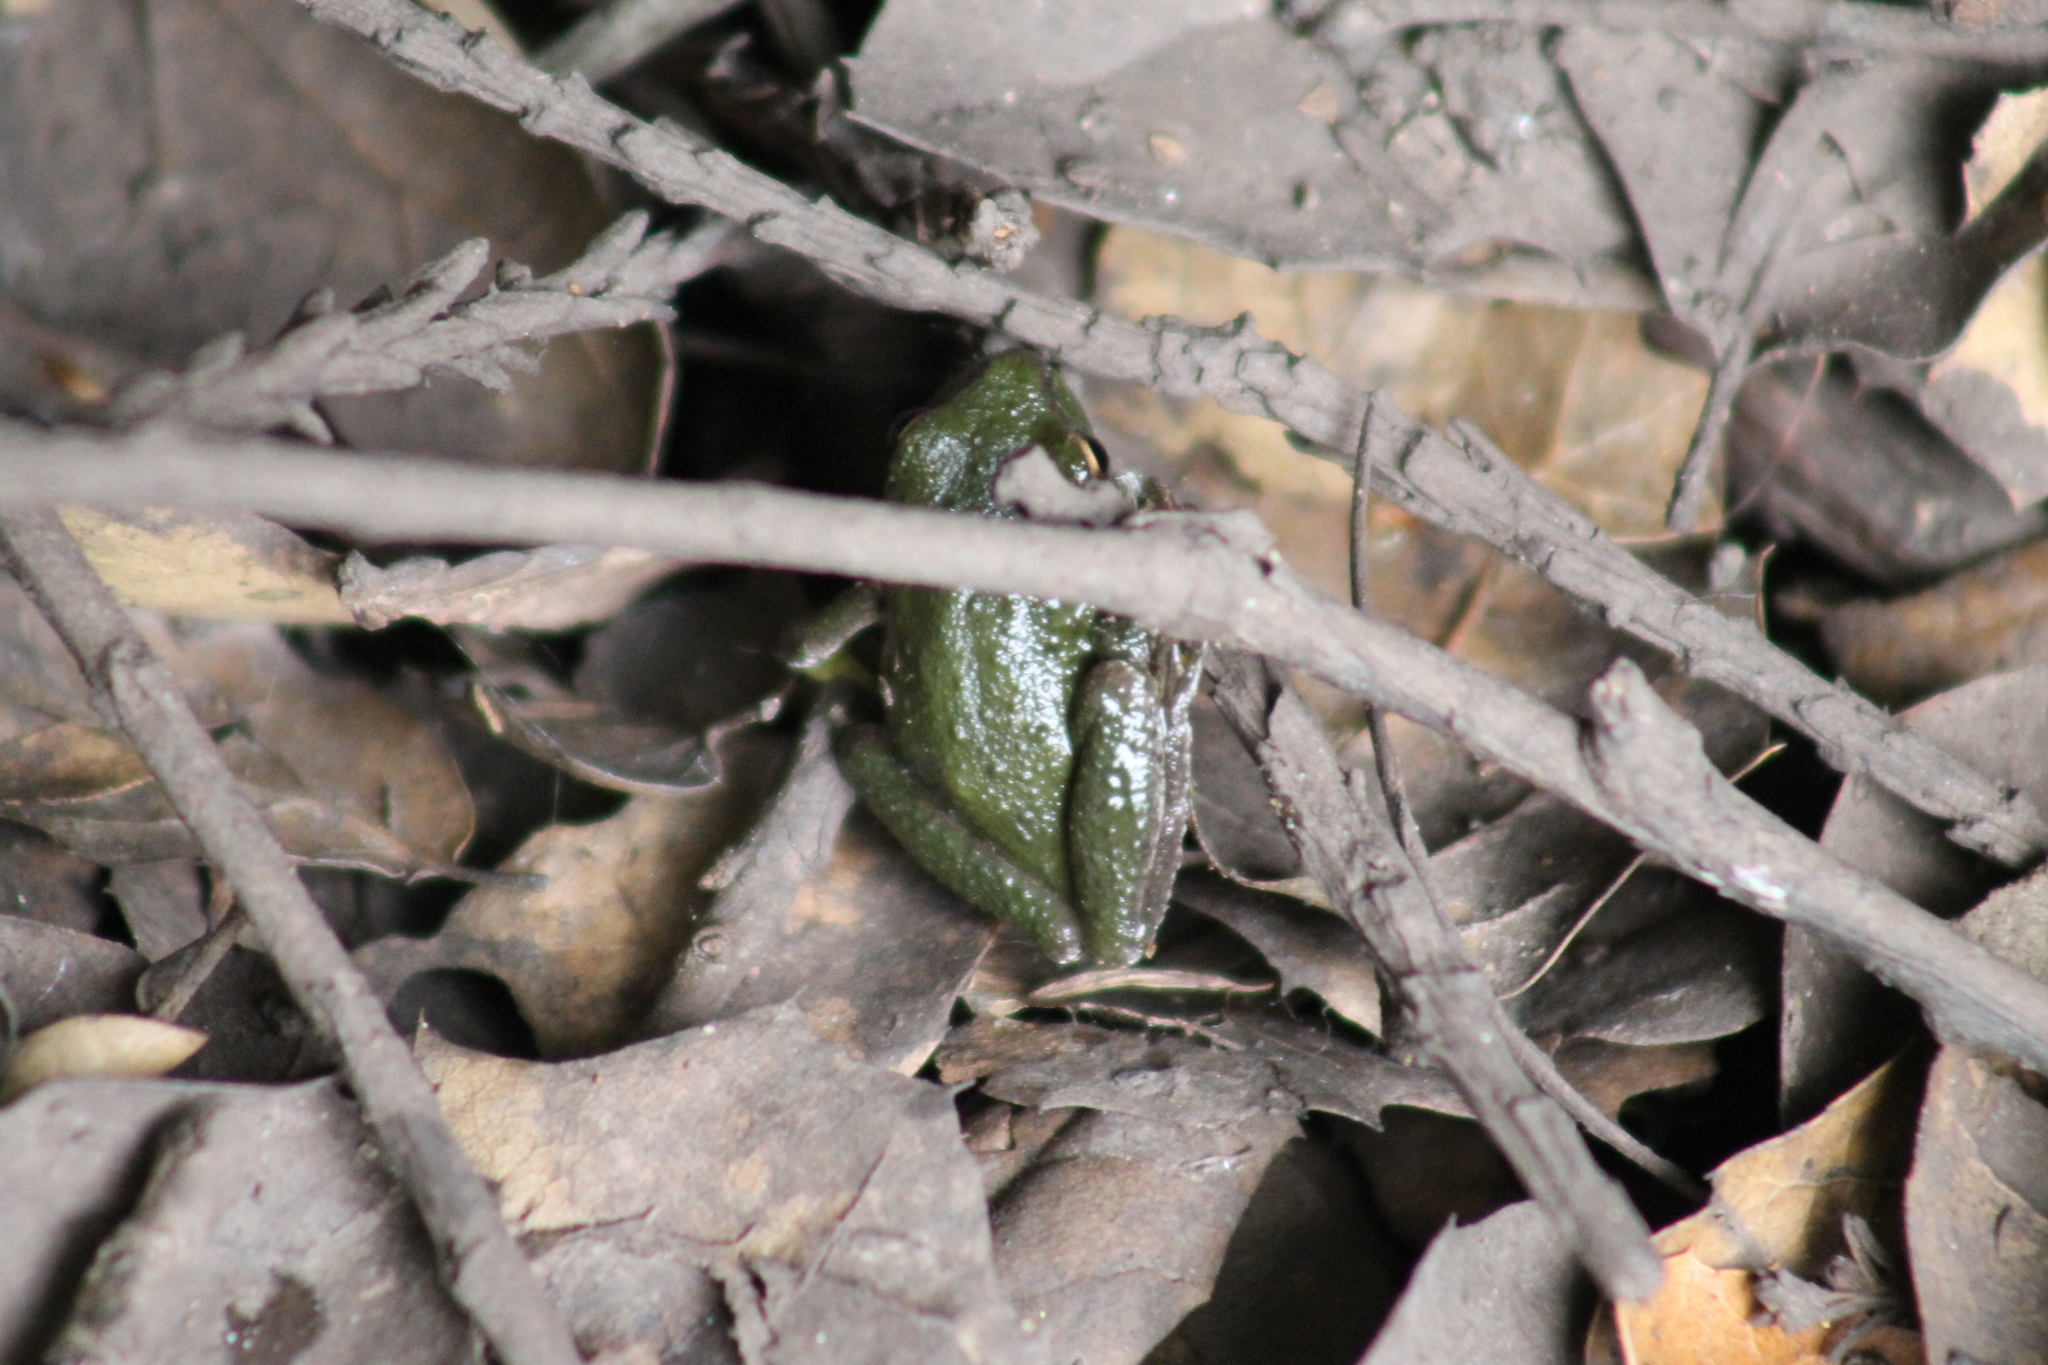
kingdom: Animalia
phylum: Chordata
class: Amphibia
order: Anura
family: Hylidae
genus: Pseudacris
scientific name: Pseudacris regilla
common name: Pacific chorus frog
